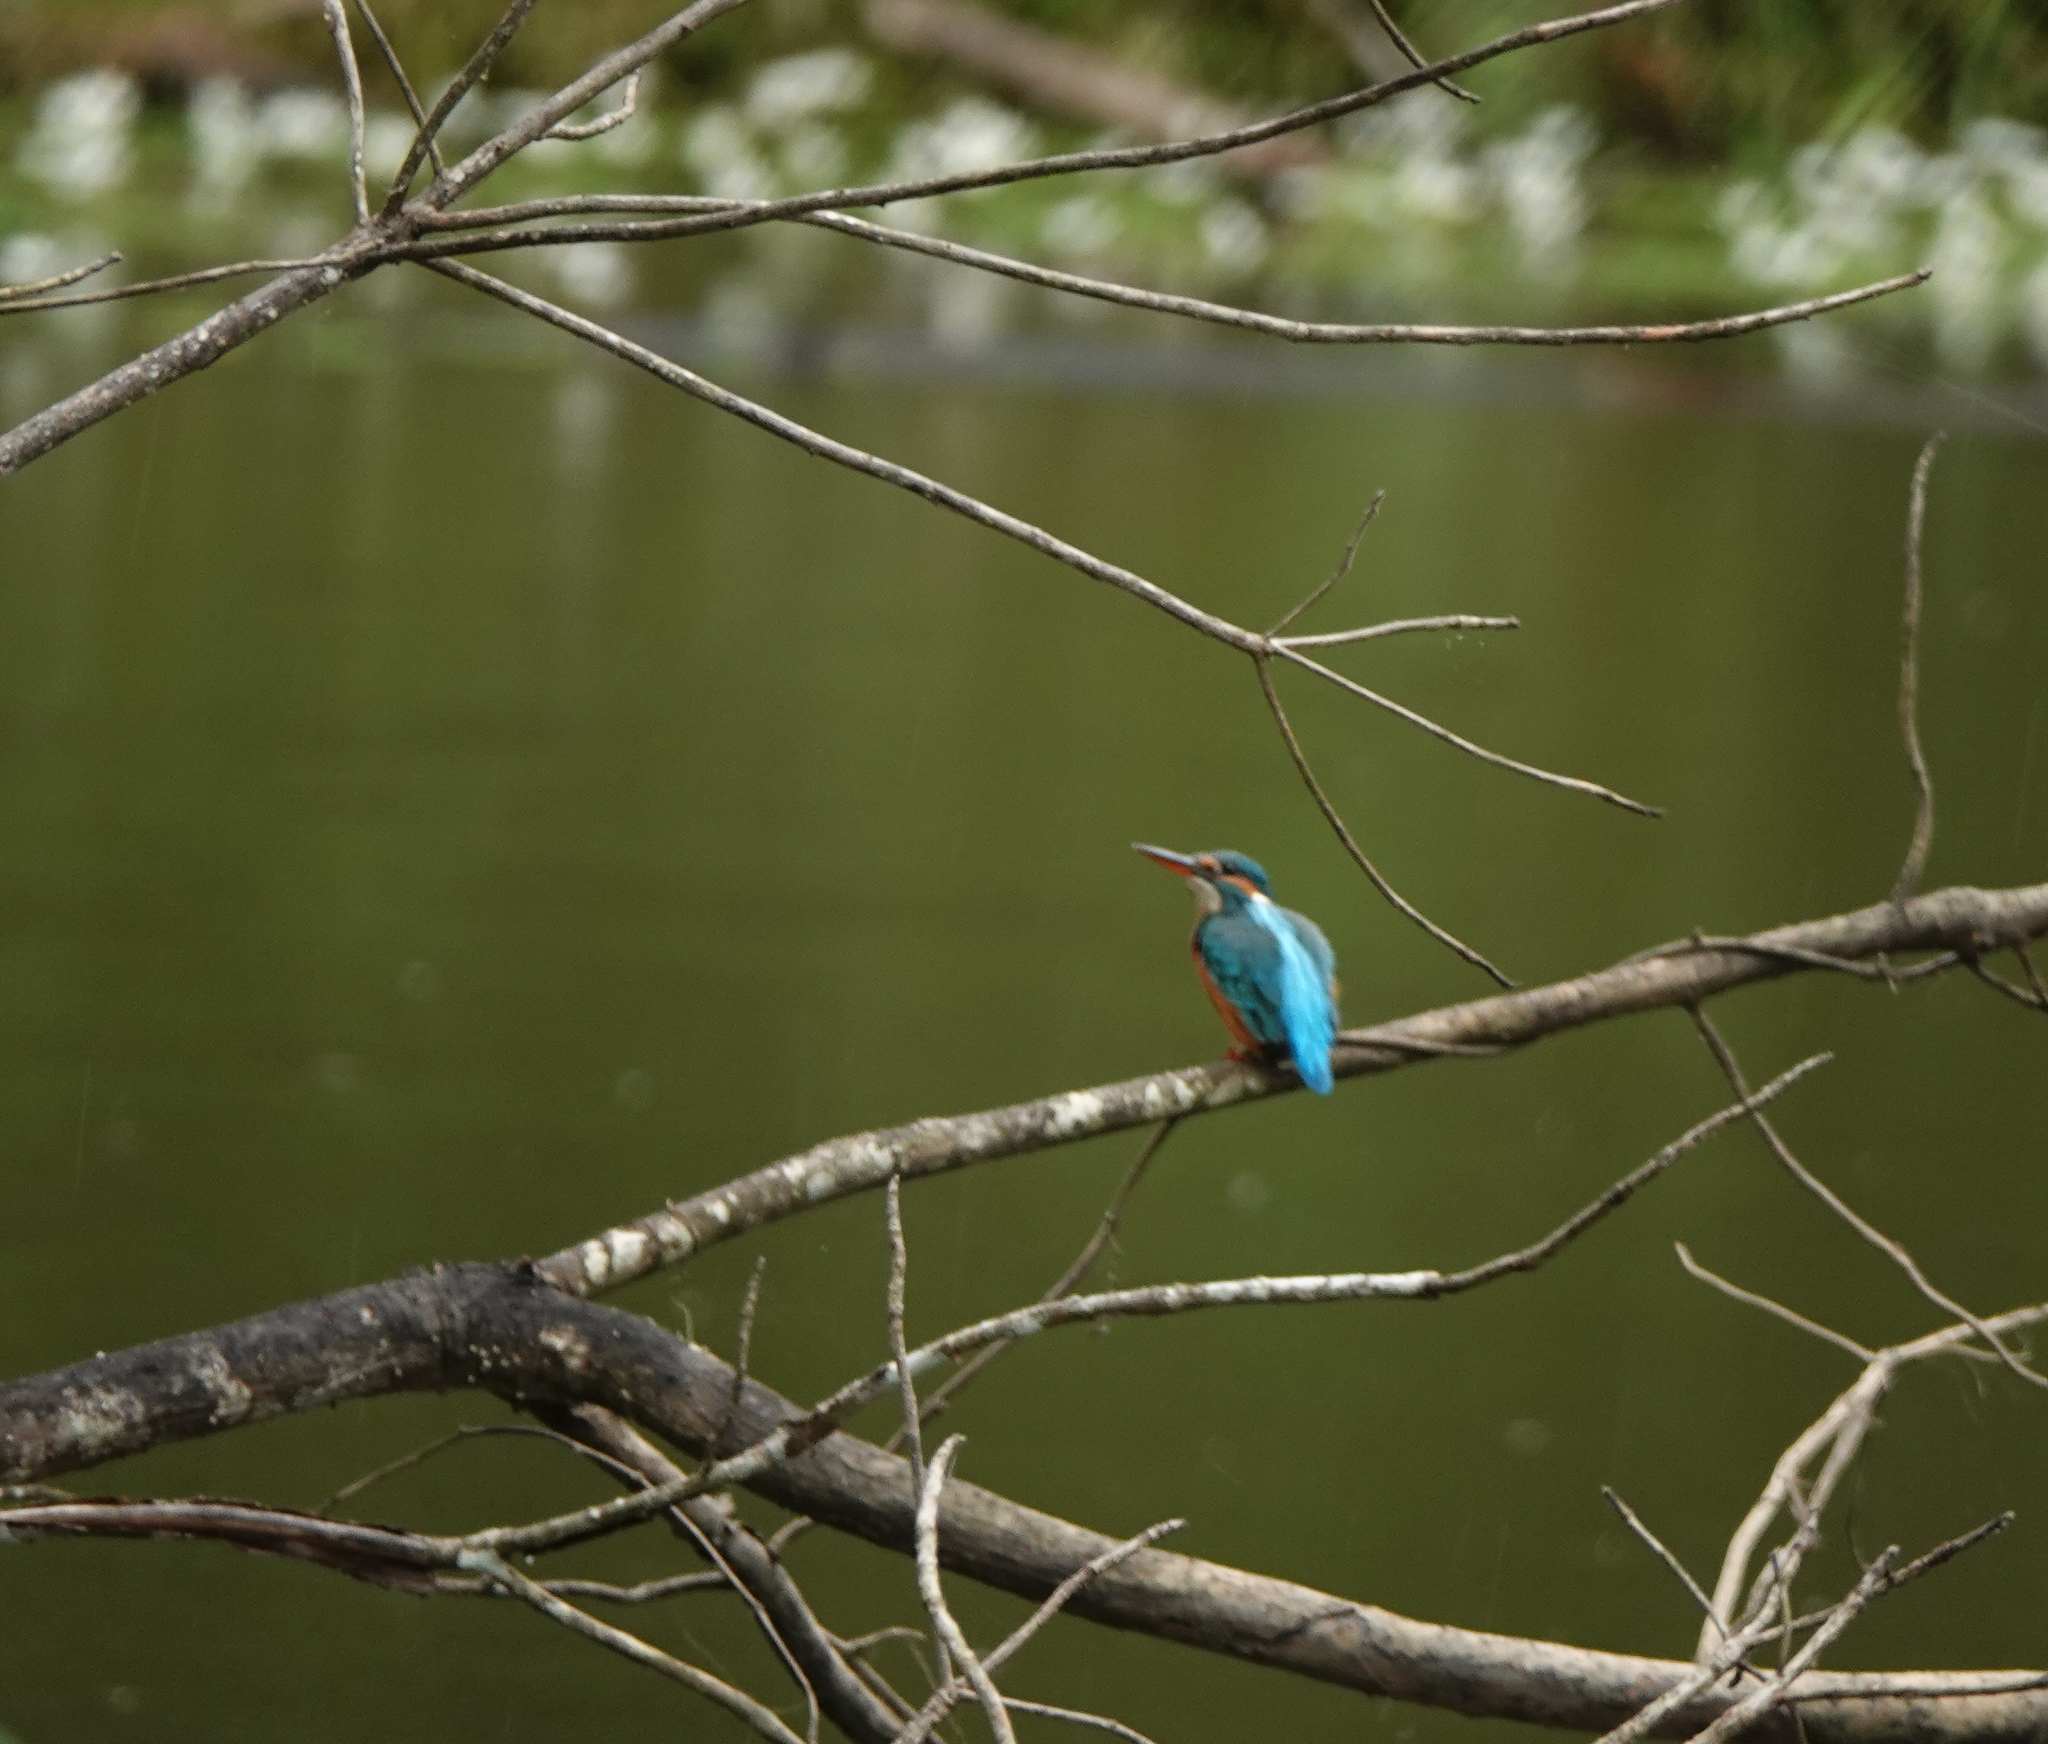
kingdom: Animalia
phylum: Chordata
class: Aves
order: Coraciiformes
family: Alcedinidae
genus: Alcedo
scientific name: Alcedo atthis
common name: Common kingfisher
